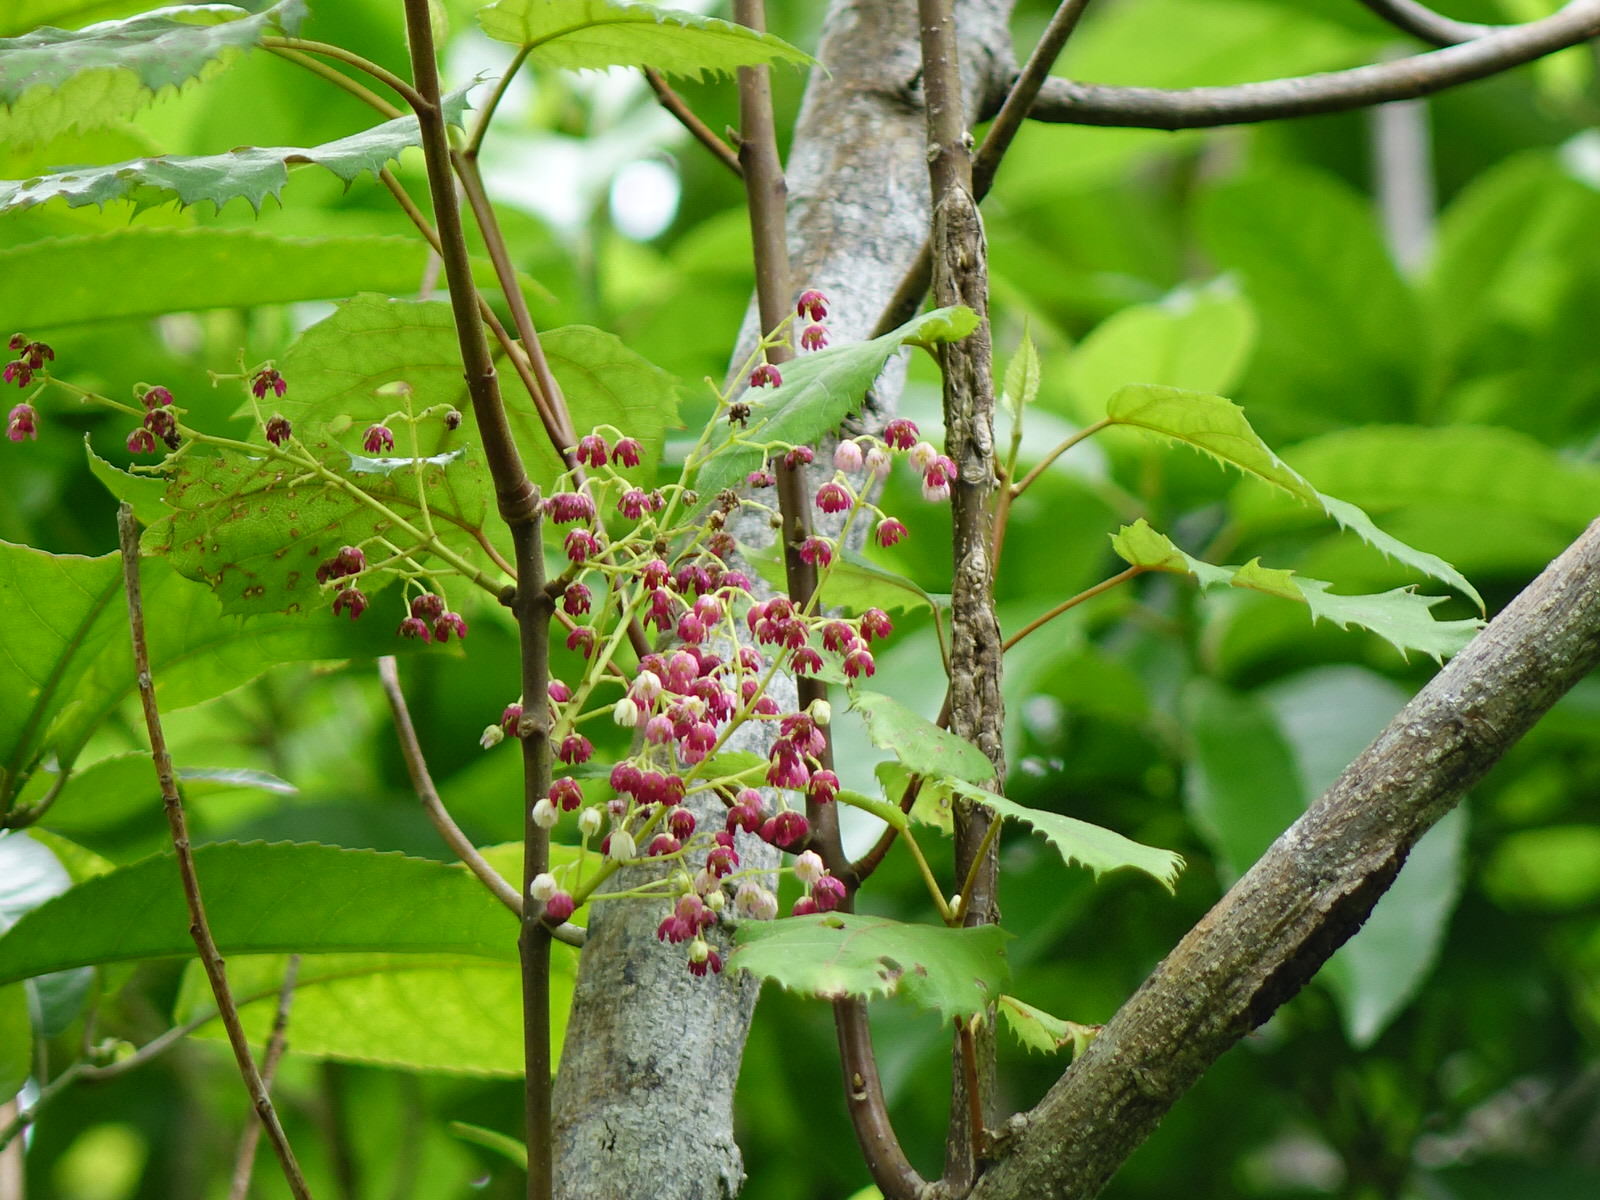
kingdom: Plantae
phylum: Tracheophyta
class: Magnoliopsida
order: Oxalidales
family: Elaeocarpaceae
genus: Aristotelia
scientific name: Aristotelia serrata
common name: New zealand wineberry
